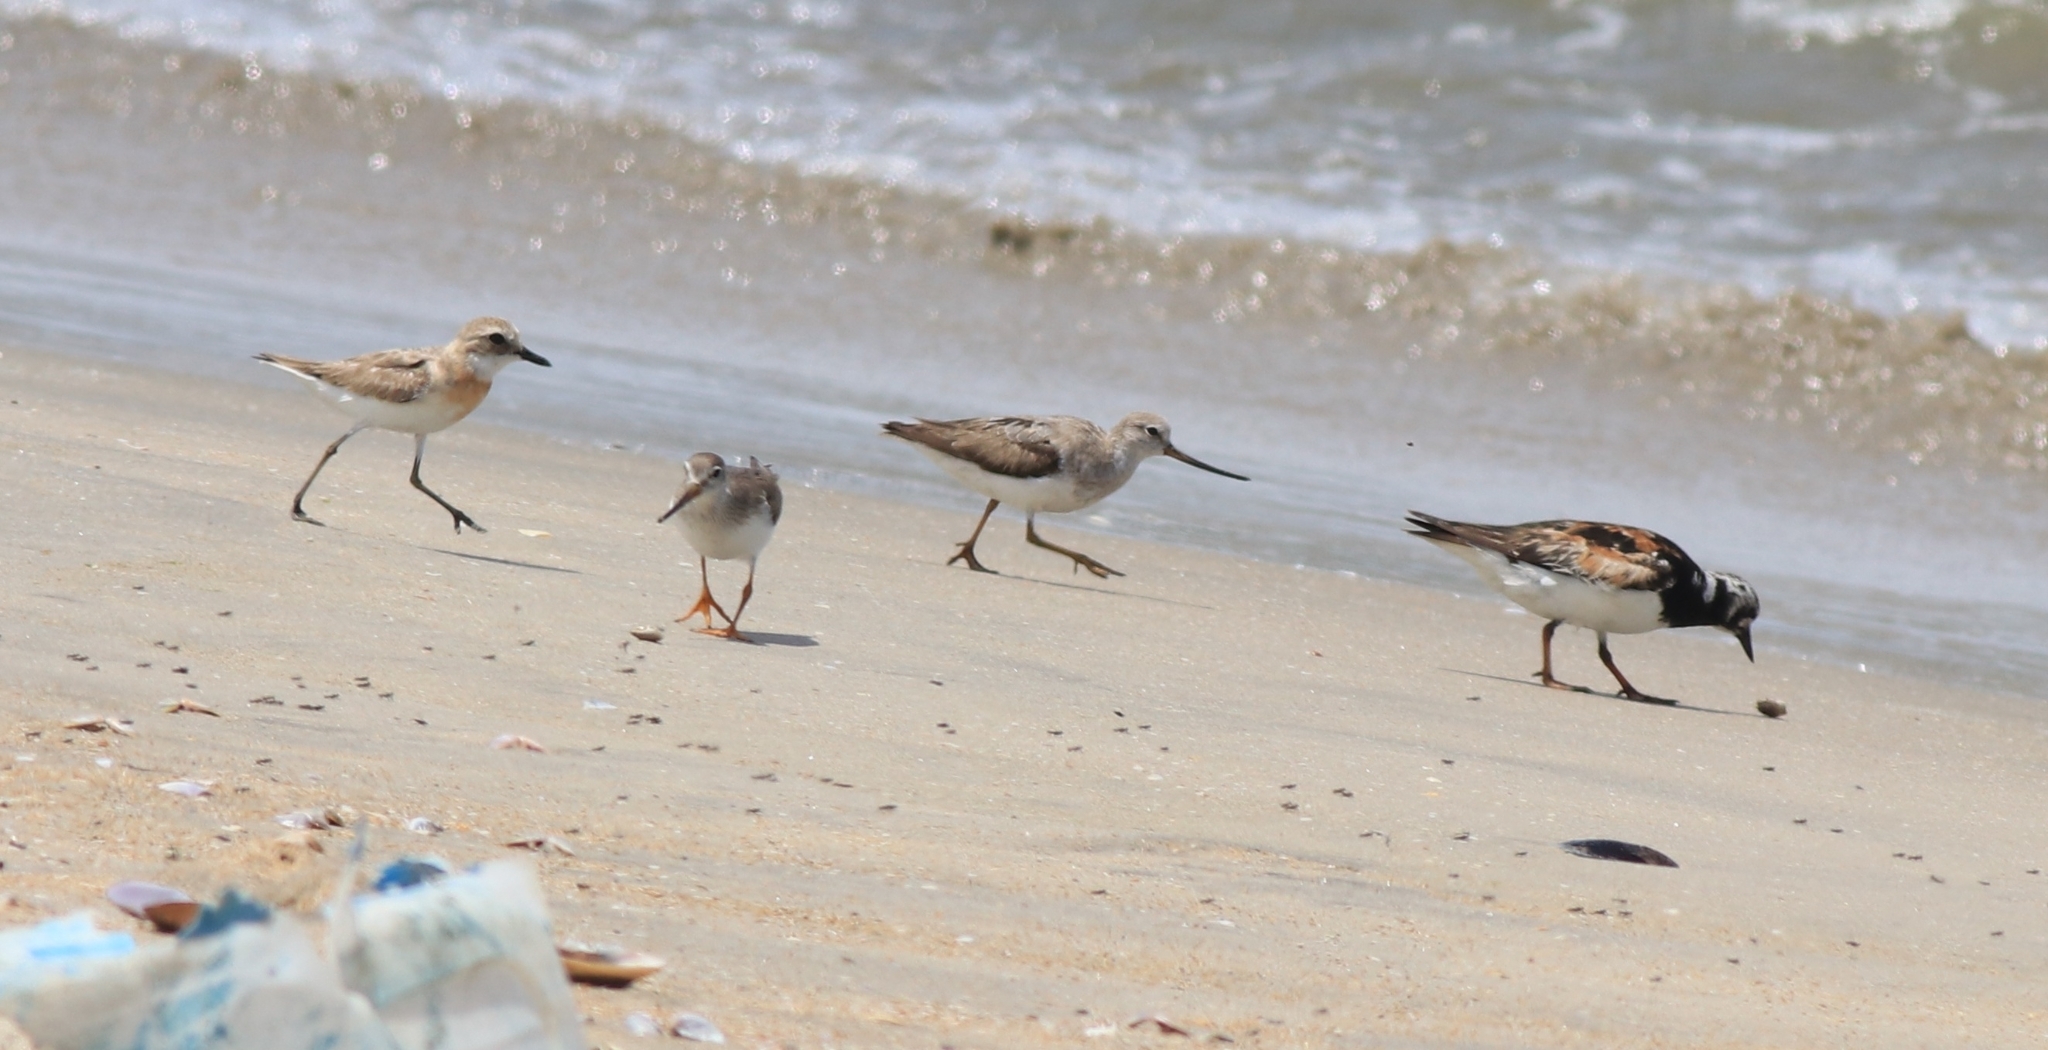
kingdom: Animalia
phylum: Chordata
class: Aves
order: Charadriiformes
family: Scolopacidae
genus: Xenus
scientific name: Xenus cinereus
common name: Terek sandpiper
